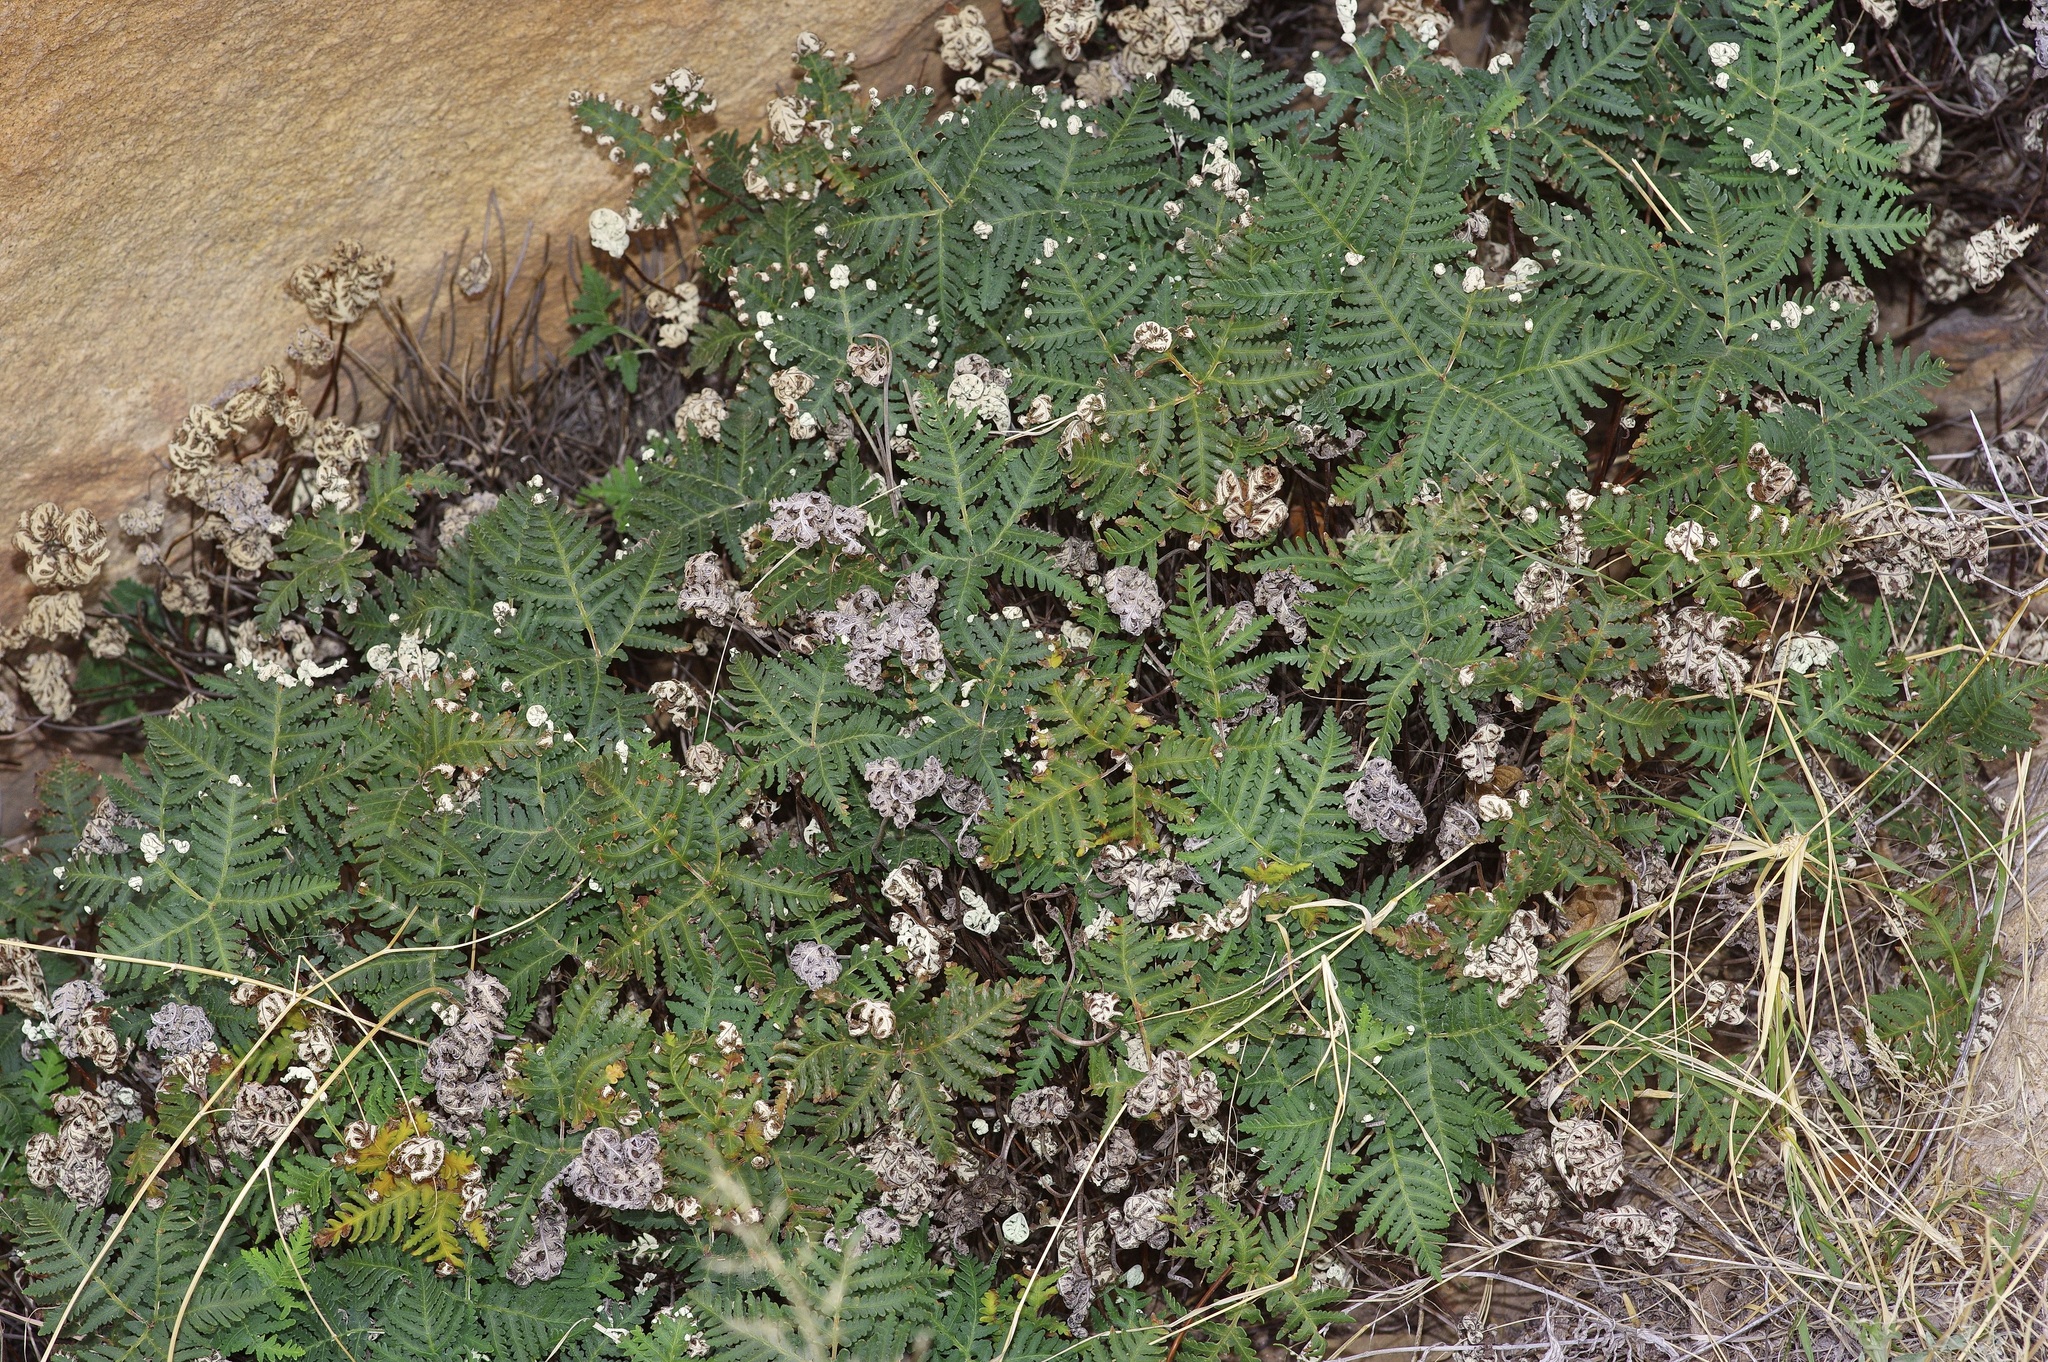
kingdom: Plantae
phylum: Tracheophyta
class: Polypodiopsida
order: Polypodiales
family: Pteridaceae
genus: Notholaena
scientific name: Notholaena standleyi
